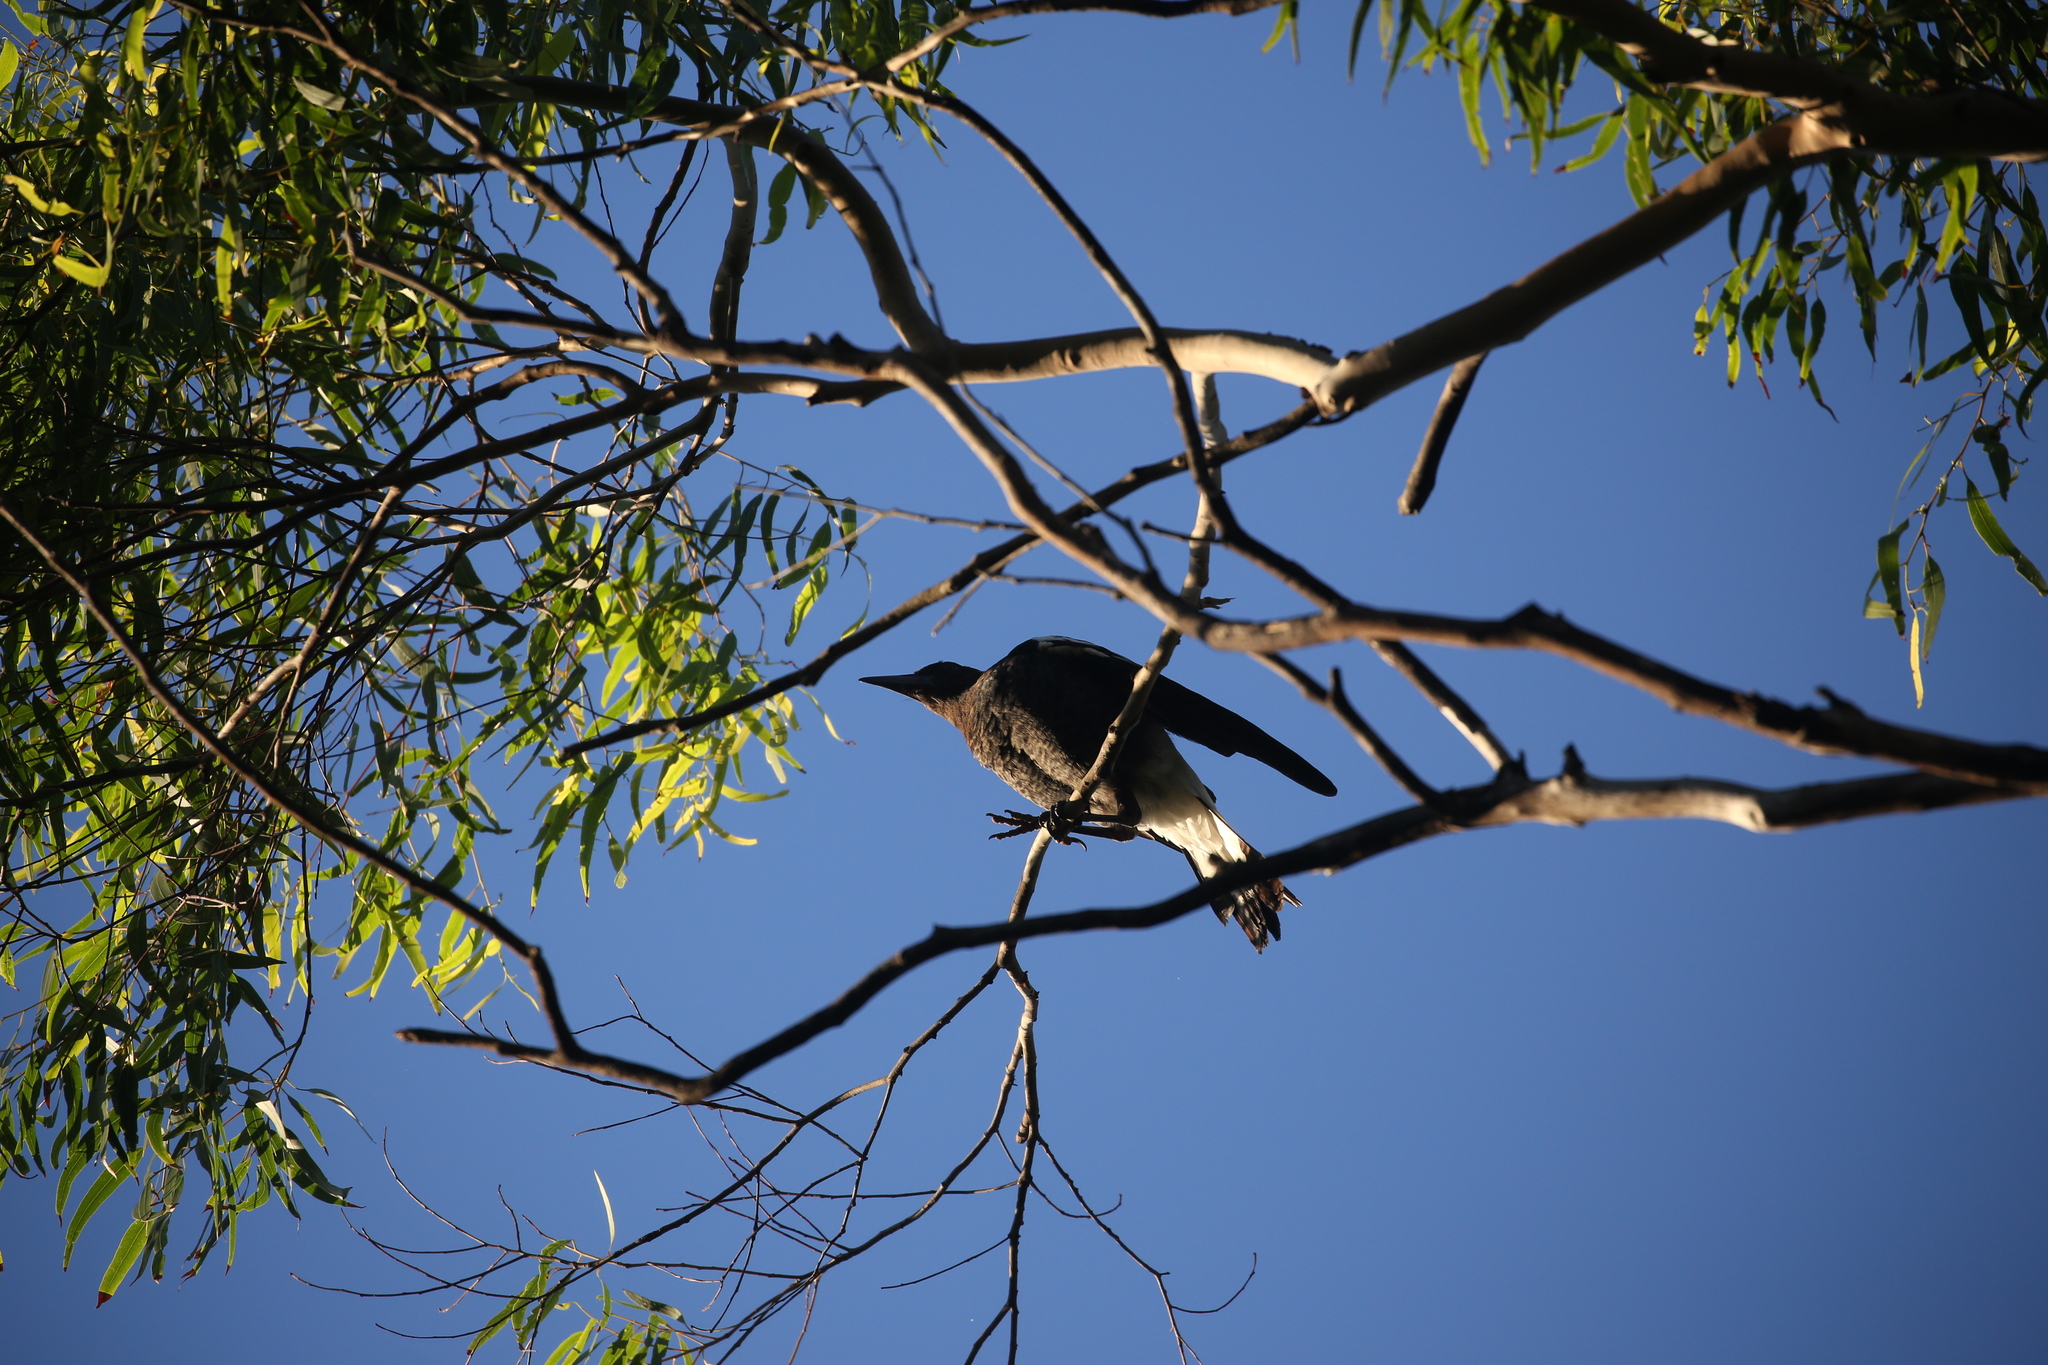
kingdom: Animalia
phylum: Chordata
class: Aves
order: Passeriformes
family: Cracticidae
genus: Gymnorhina
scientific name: Gymnorhina tibicen
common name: Australian magpie
